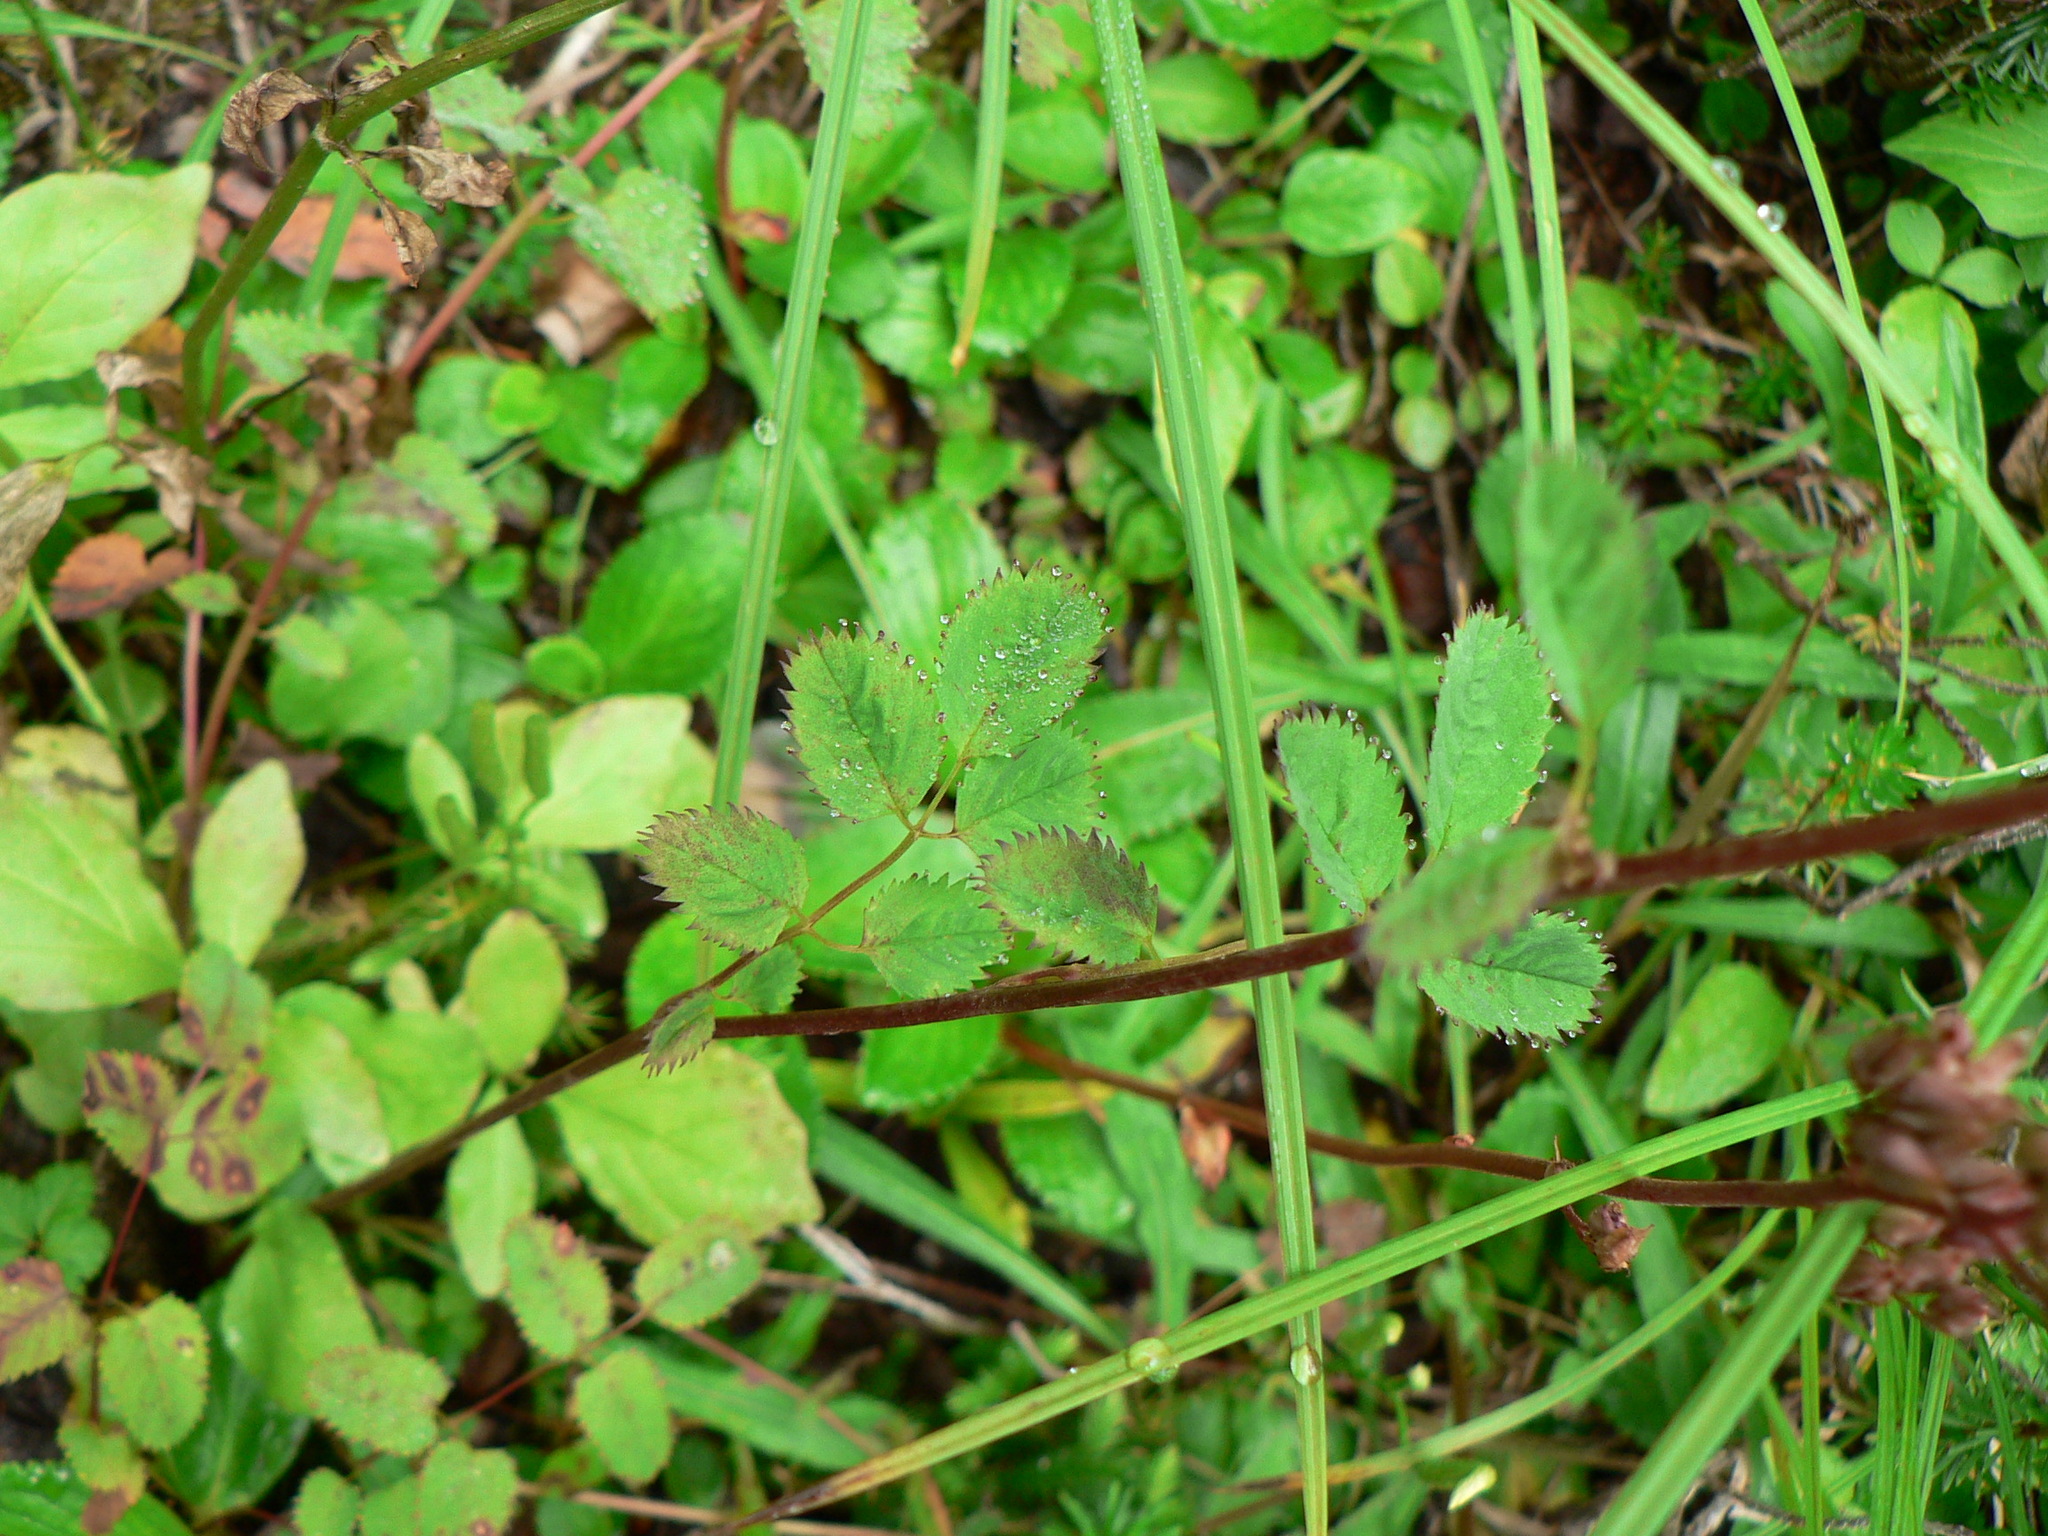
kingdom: Plantae
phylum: Tracheophyta
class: Magnoliopsida
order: Rosales
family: Rosaceae
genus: Sanguisorba
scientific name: Sanguisorba stipulata
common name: Sitka burnet
